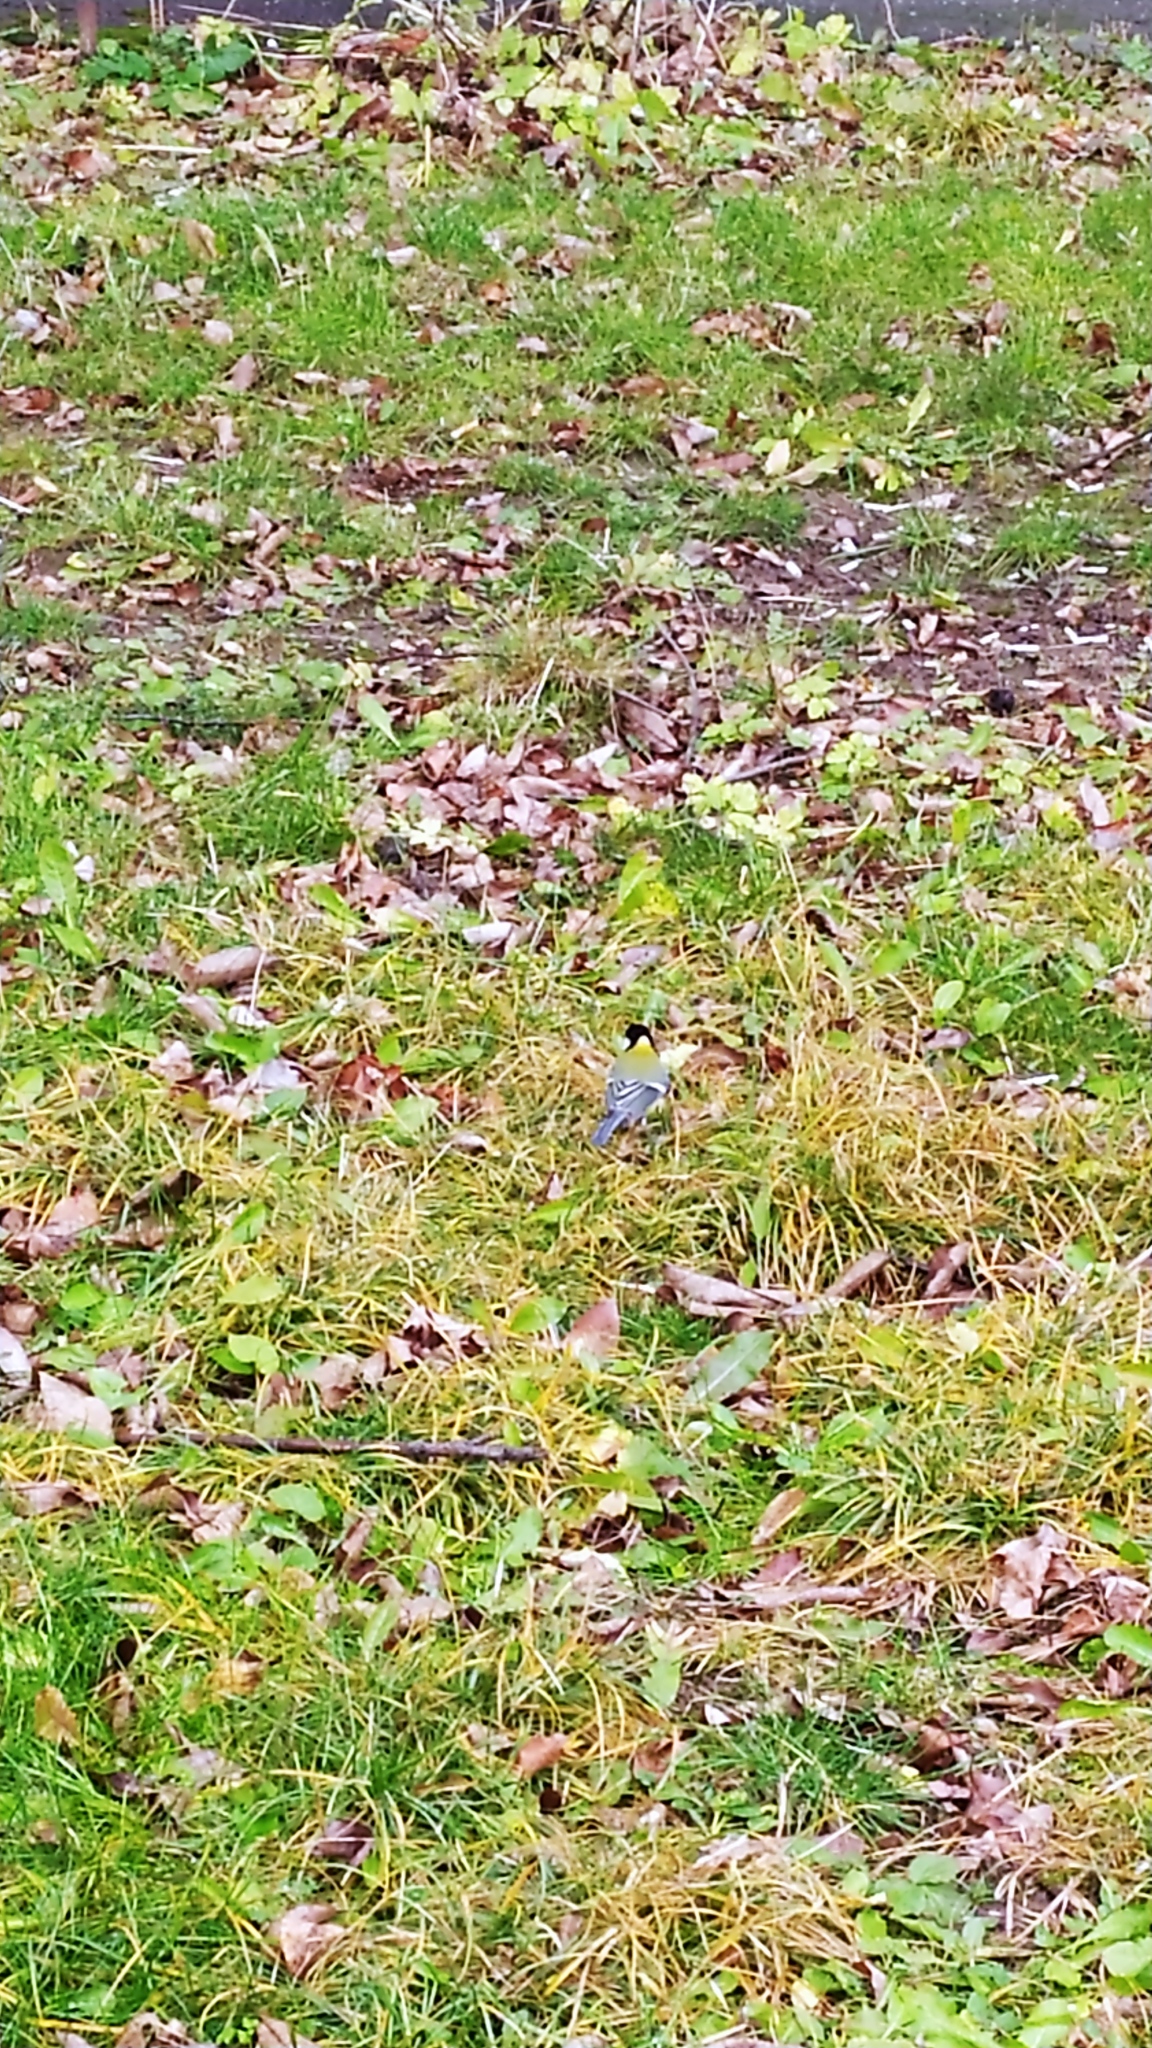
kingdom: Animalia
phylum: Chordata
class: Aves
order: Passeriformes
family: Paridae
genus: Parus
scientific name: Parus major
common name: Great tit
